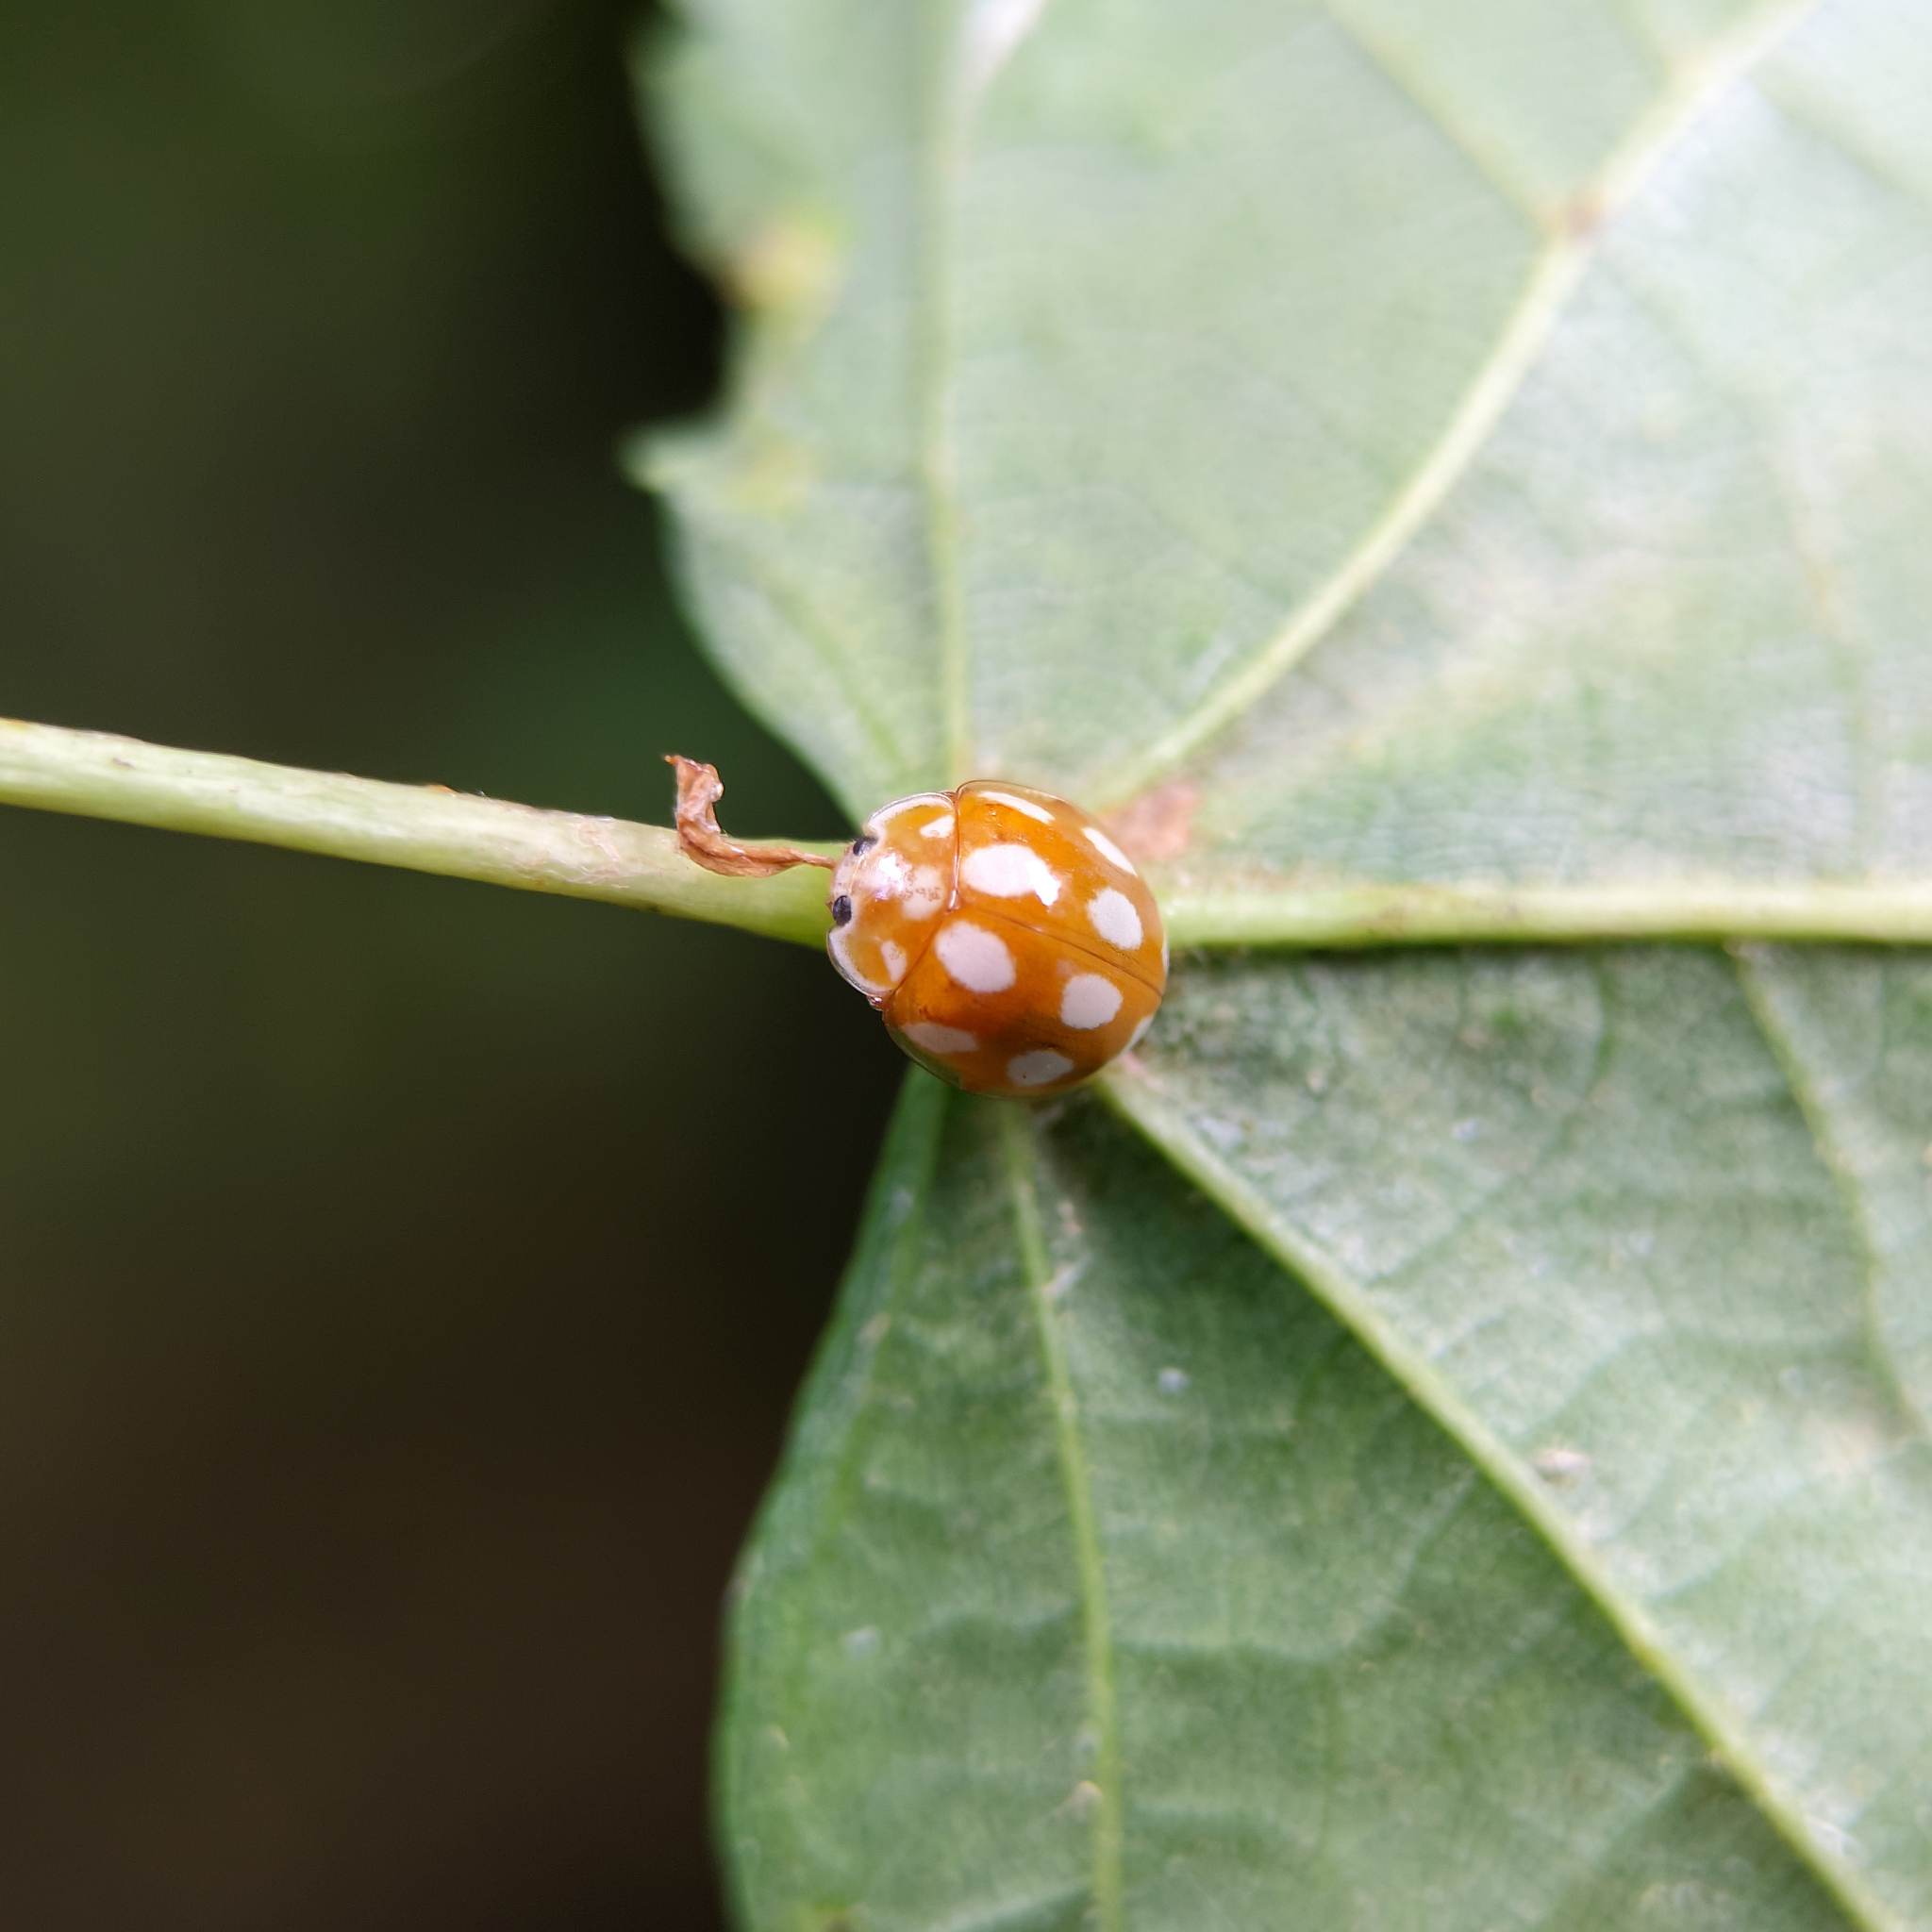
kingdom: Animalia
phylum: Arthropoda
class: Insecta
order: Coleoptera
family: Coccinellidae
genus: Calvia
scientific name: Calvia decemguttata
